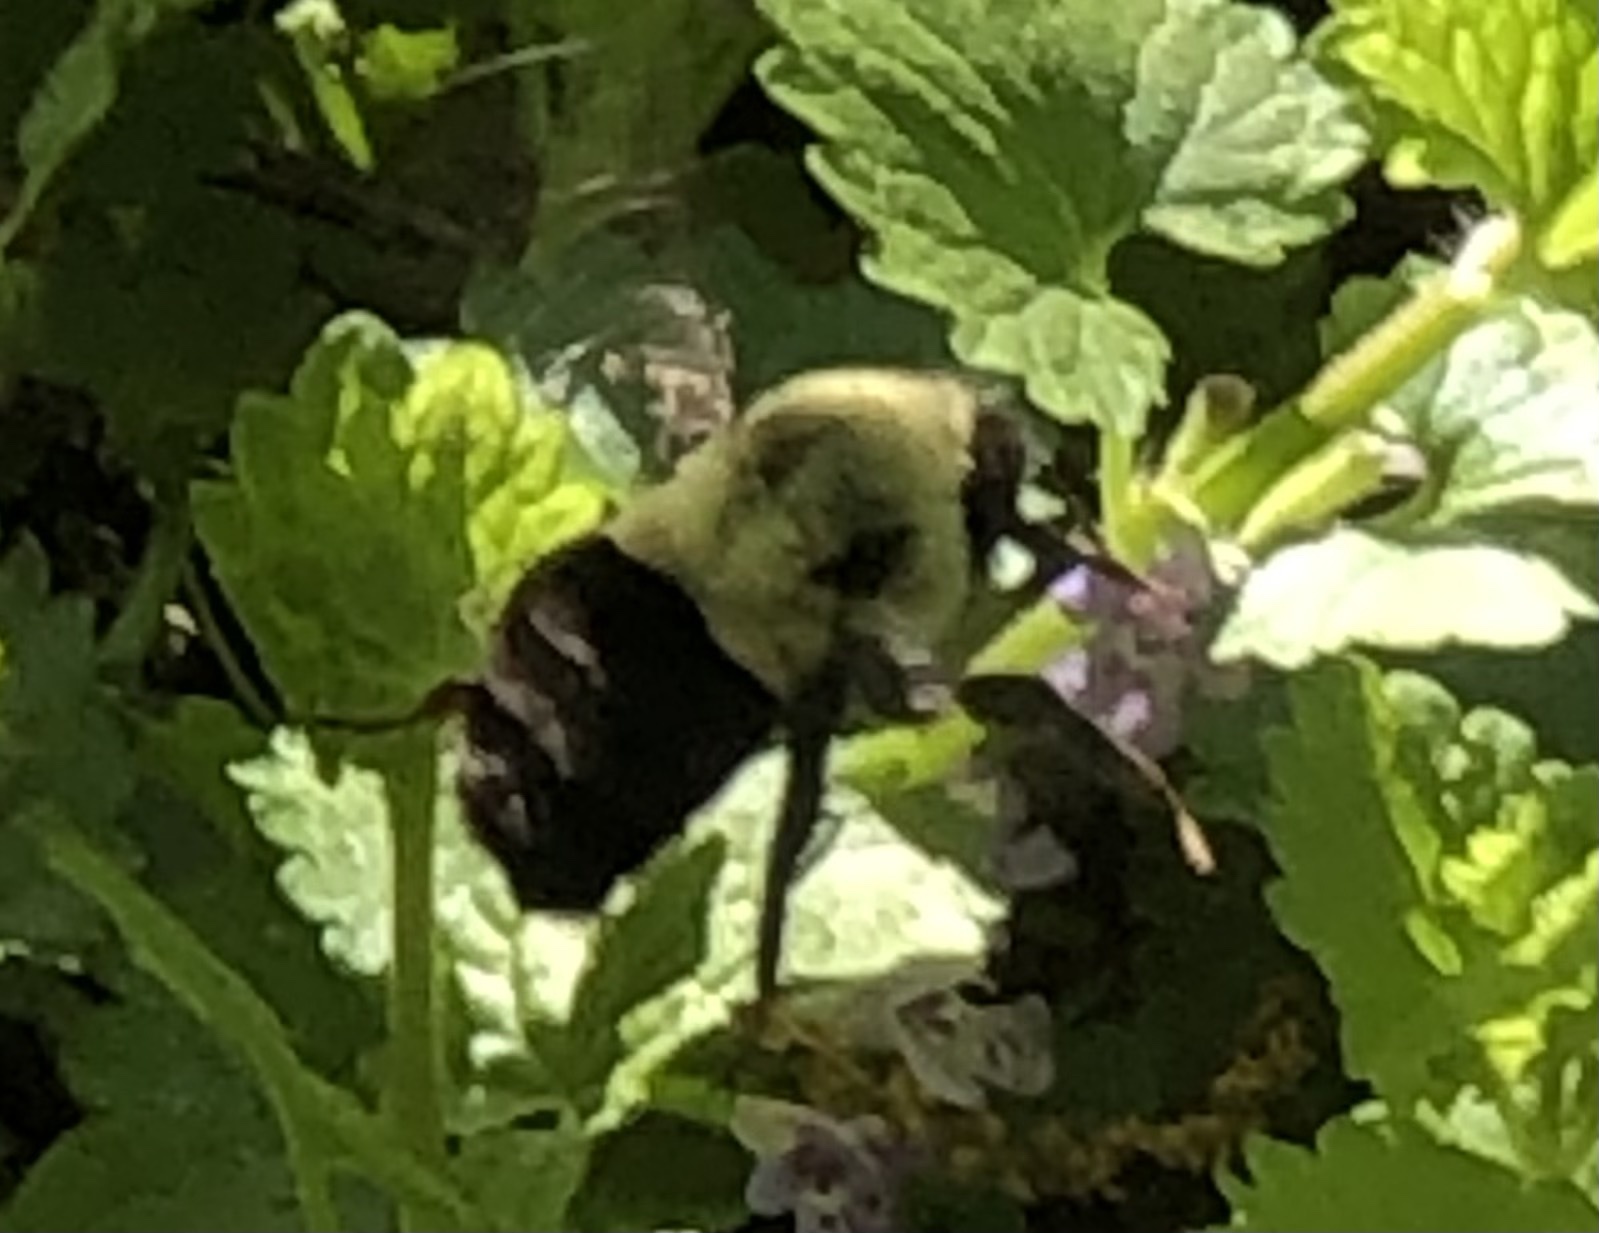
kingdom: Animalia
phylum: Arthropoda
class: Insecta
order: Hymenoptera
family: Apidae
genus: Bombus
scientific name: Bombus impatiens
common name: Common eastern bumble bee
